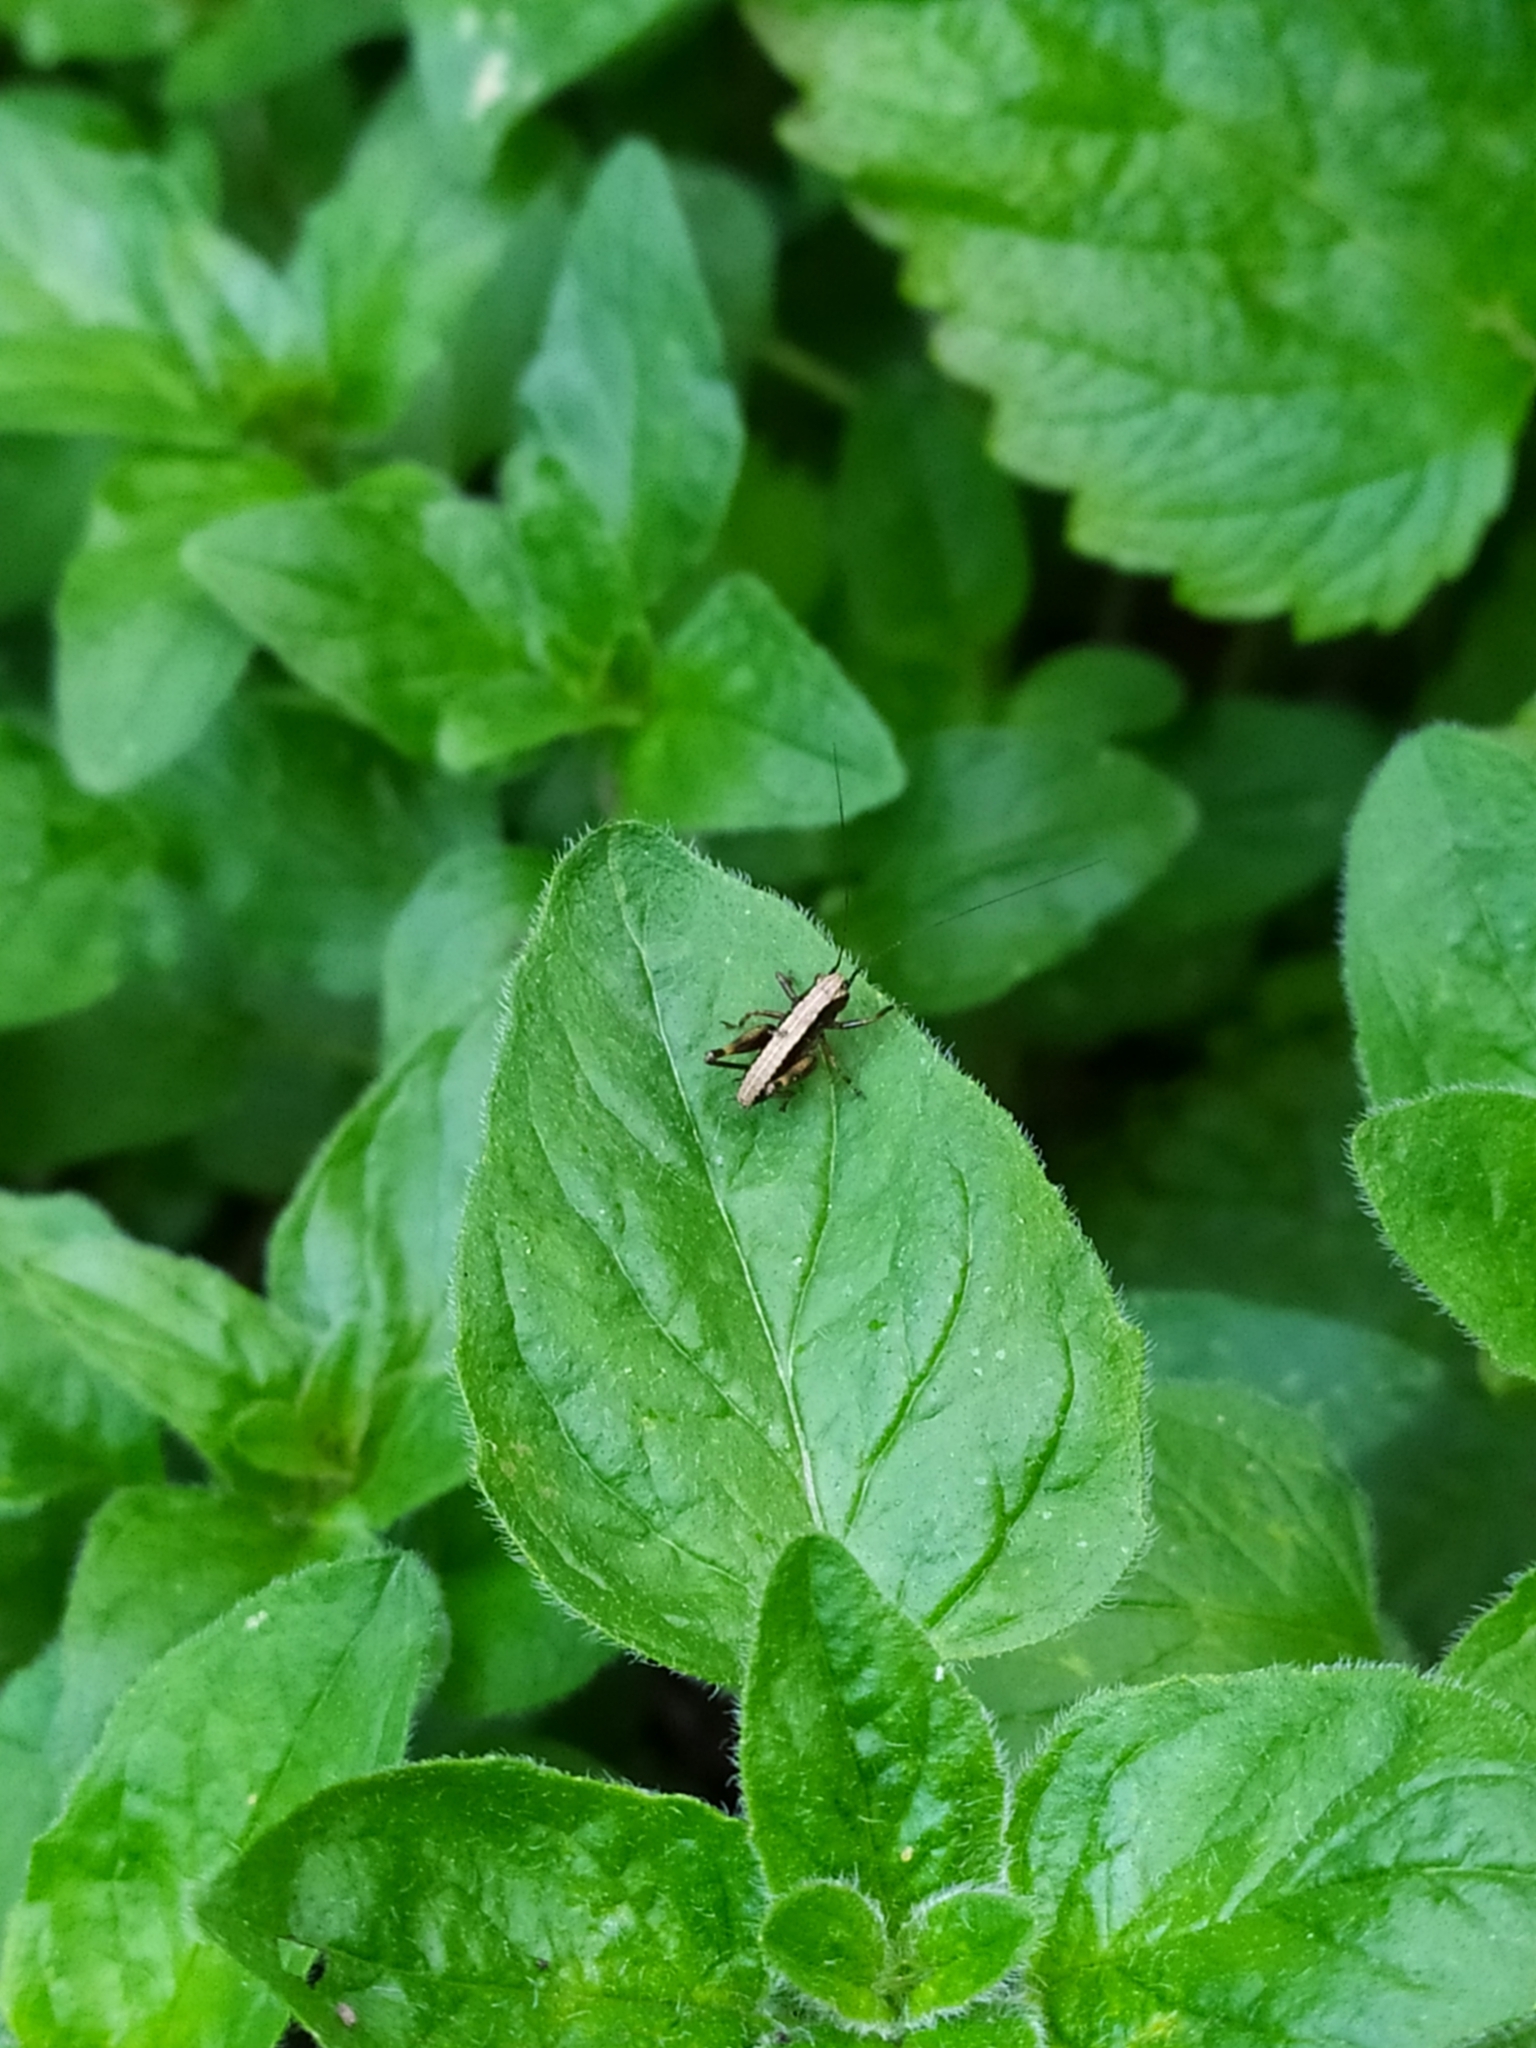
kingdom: Animalia
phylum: Arthropoda
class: Insecta
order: Orthoptera
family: Tettigoniidae
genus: Pholidoptera
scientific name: Pholidoptera griseoaptera
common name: Dark bush-cricket
